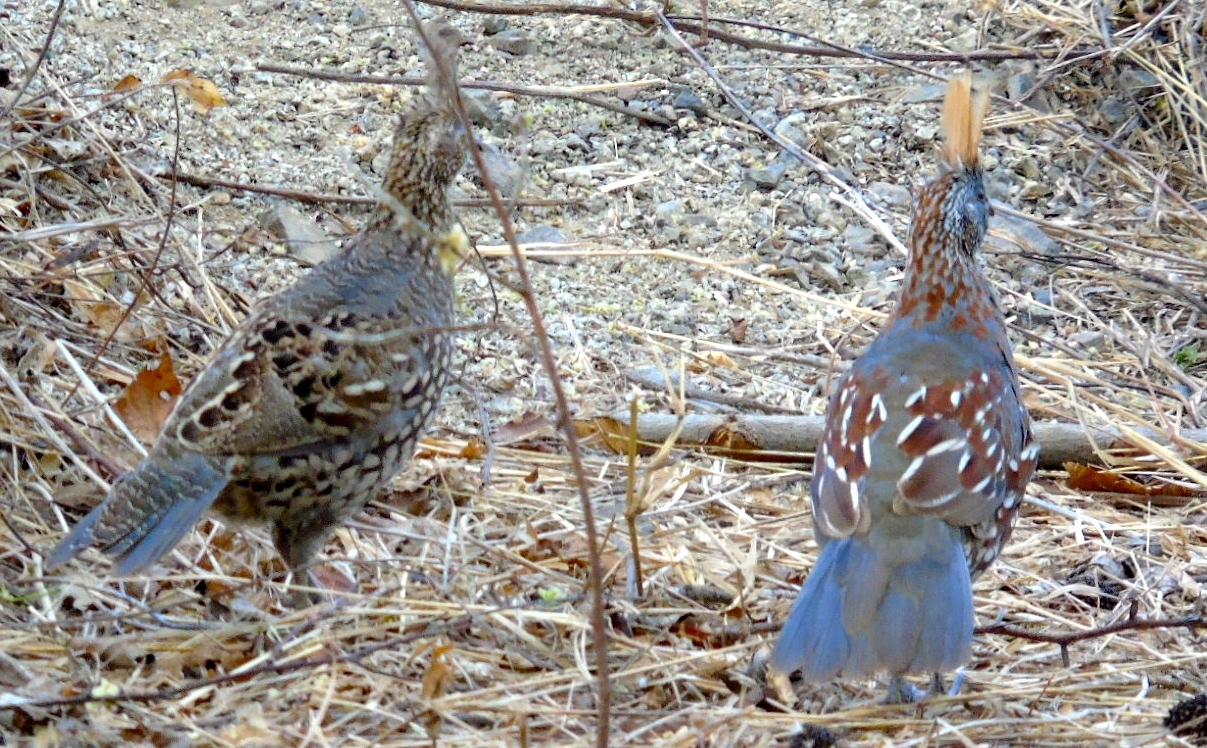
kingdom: Animalia
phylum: Chordata
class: Aves
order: Galliformes
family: Odontophoridae
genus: Callipepla
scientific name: Callipepla douglasii
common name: Elegant quail
